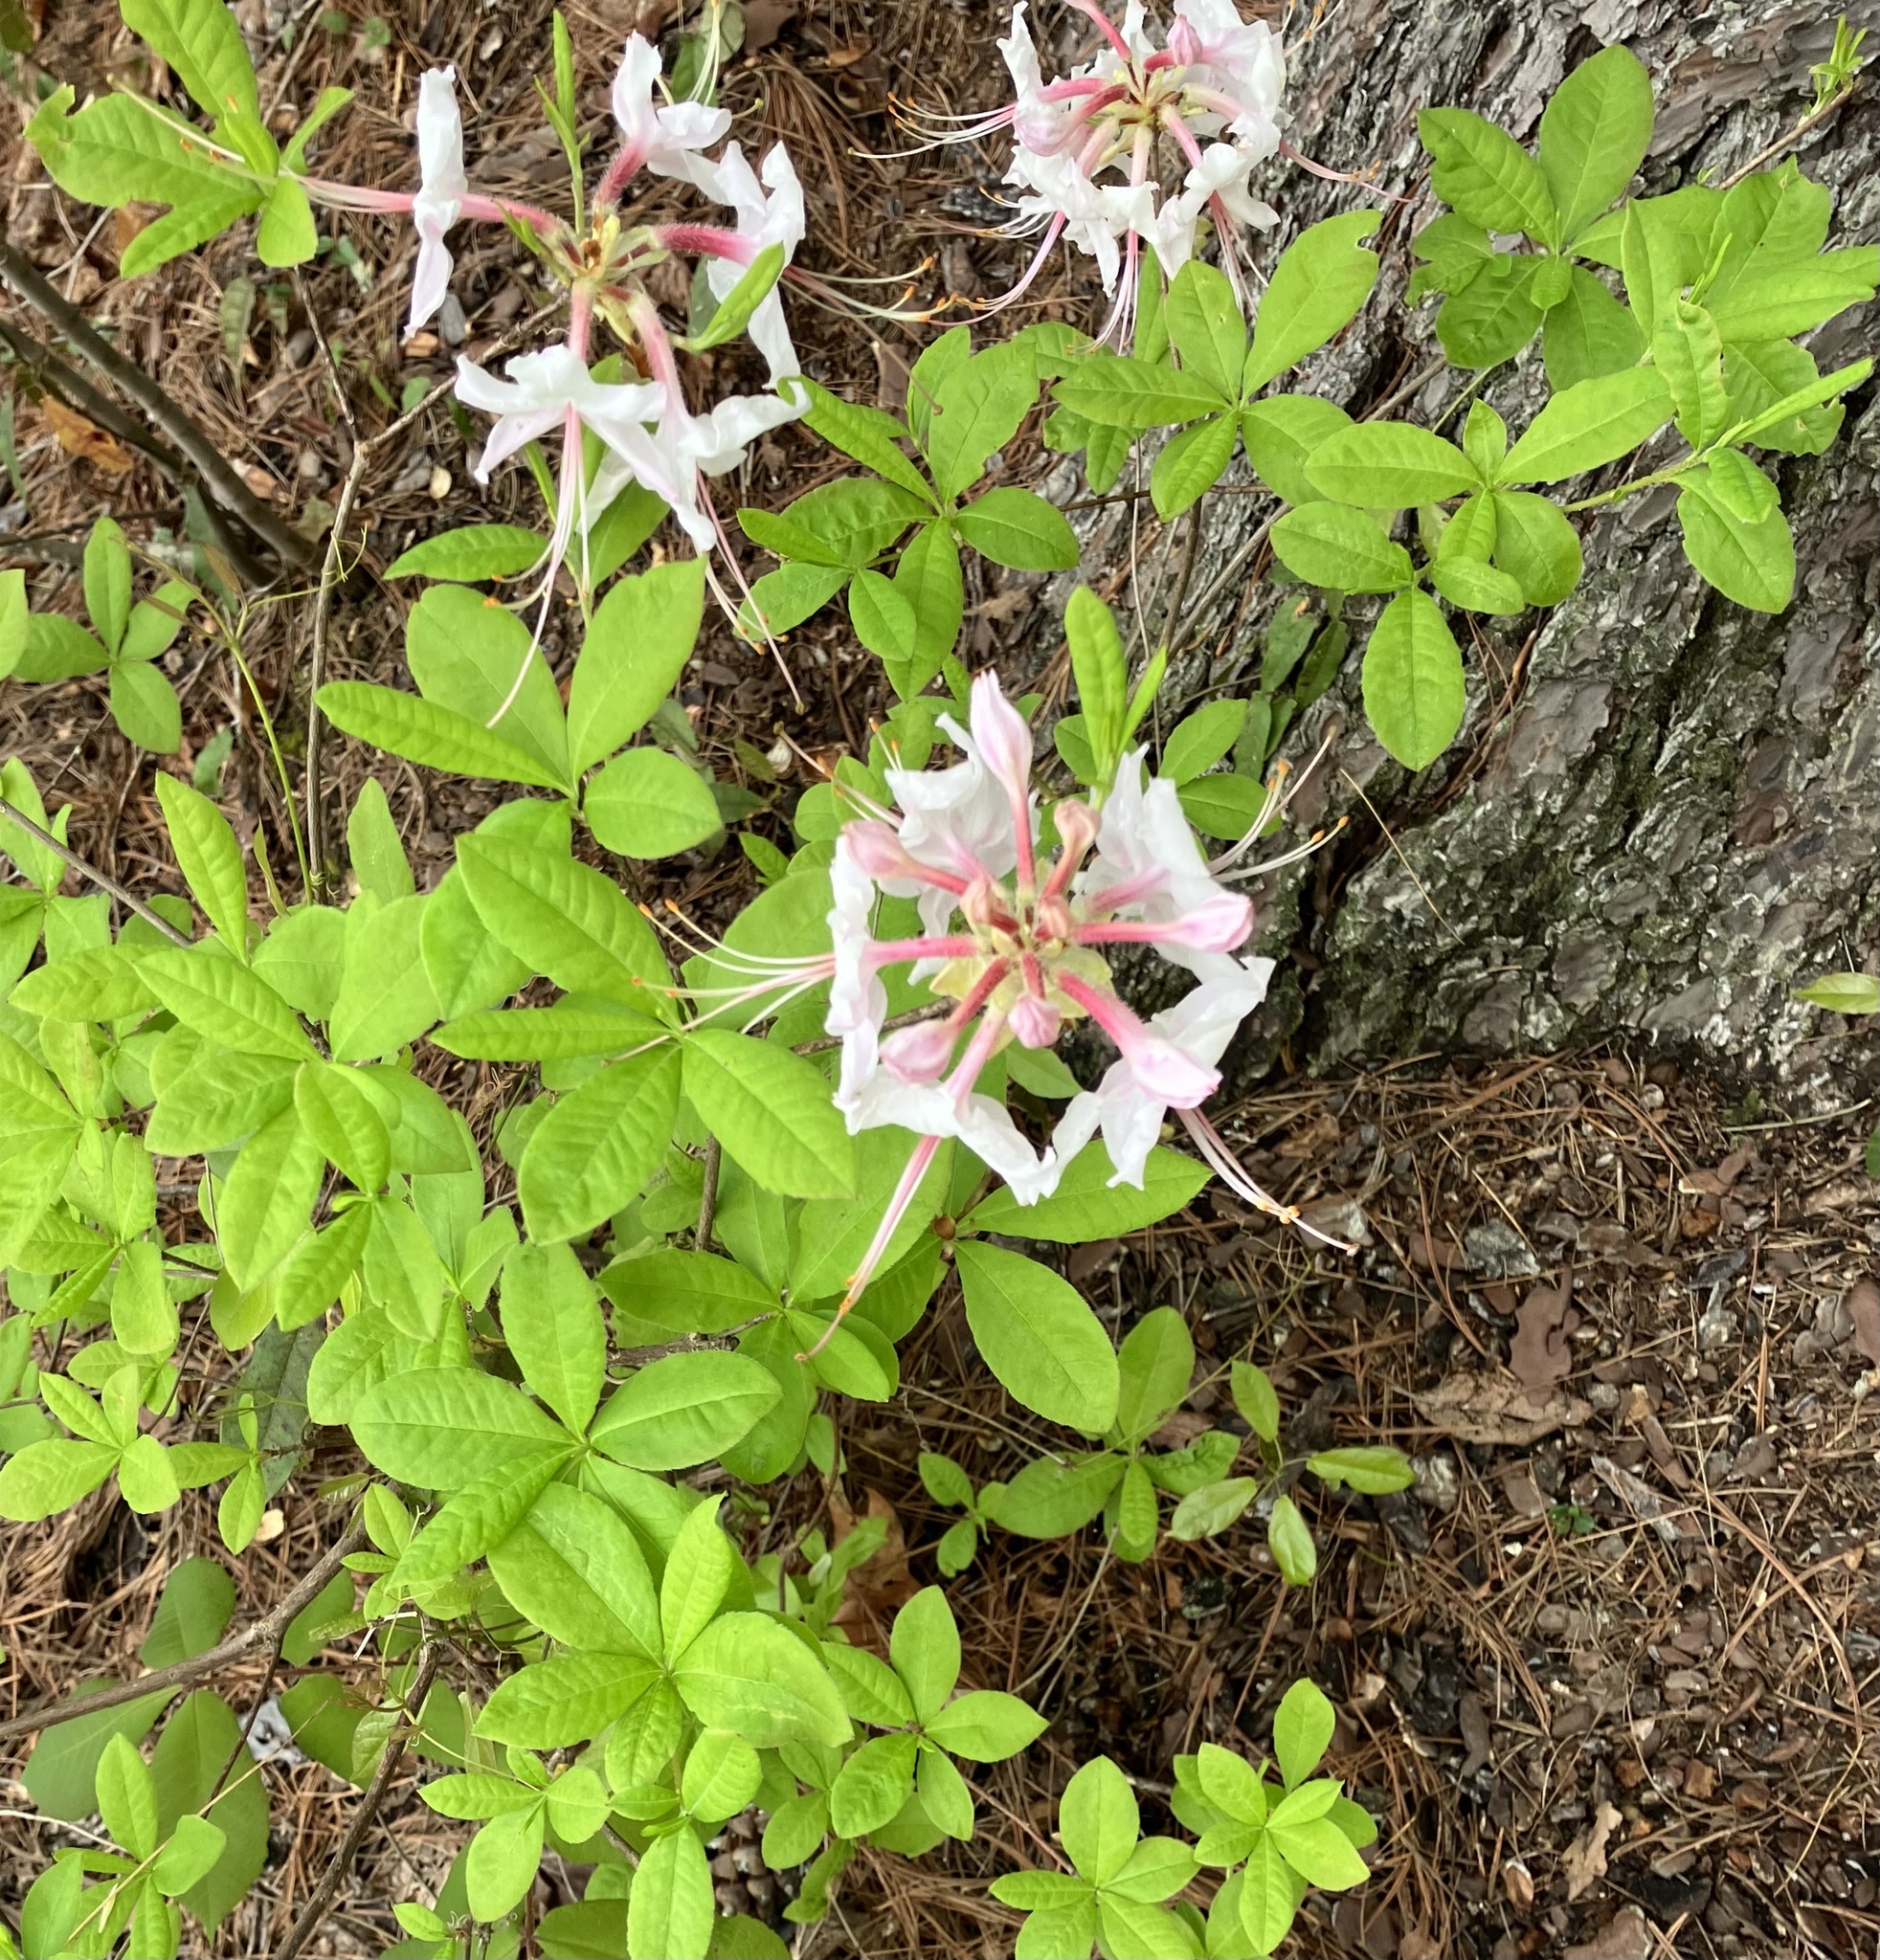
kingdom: Plantae
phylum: Tracheophyta
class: Magnoliopsida
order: Ericales
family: Ericaceae
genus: Rhododendron
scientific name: Rhododendron periclymenoides
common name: Election-pink
